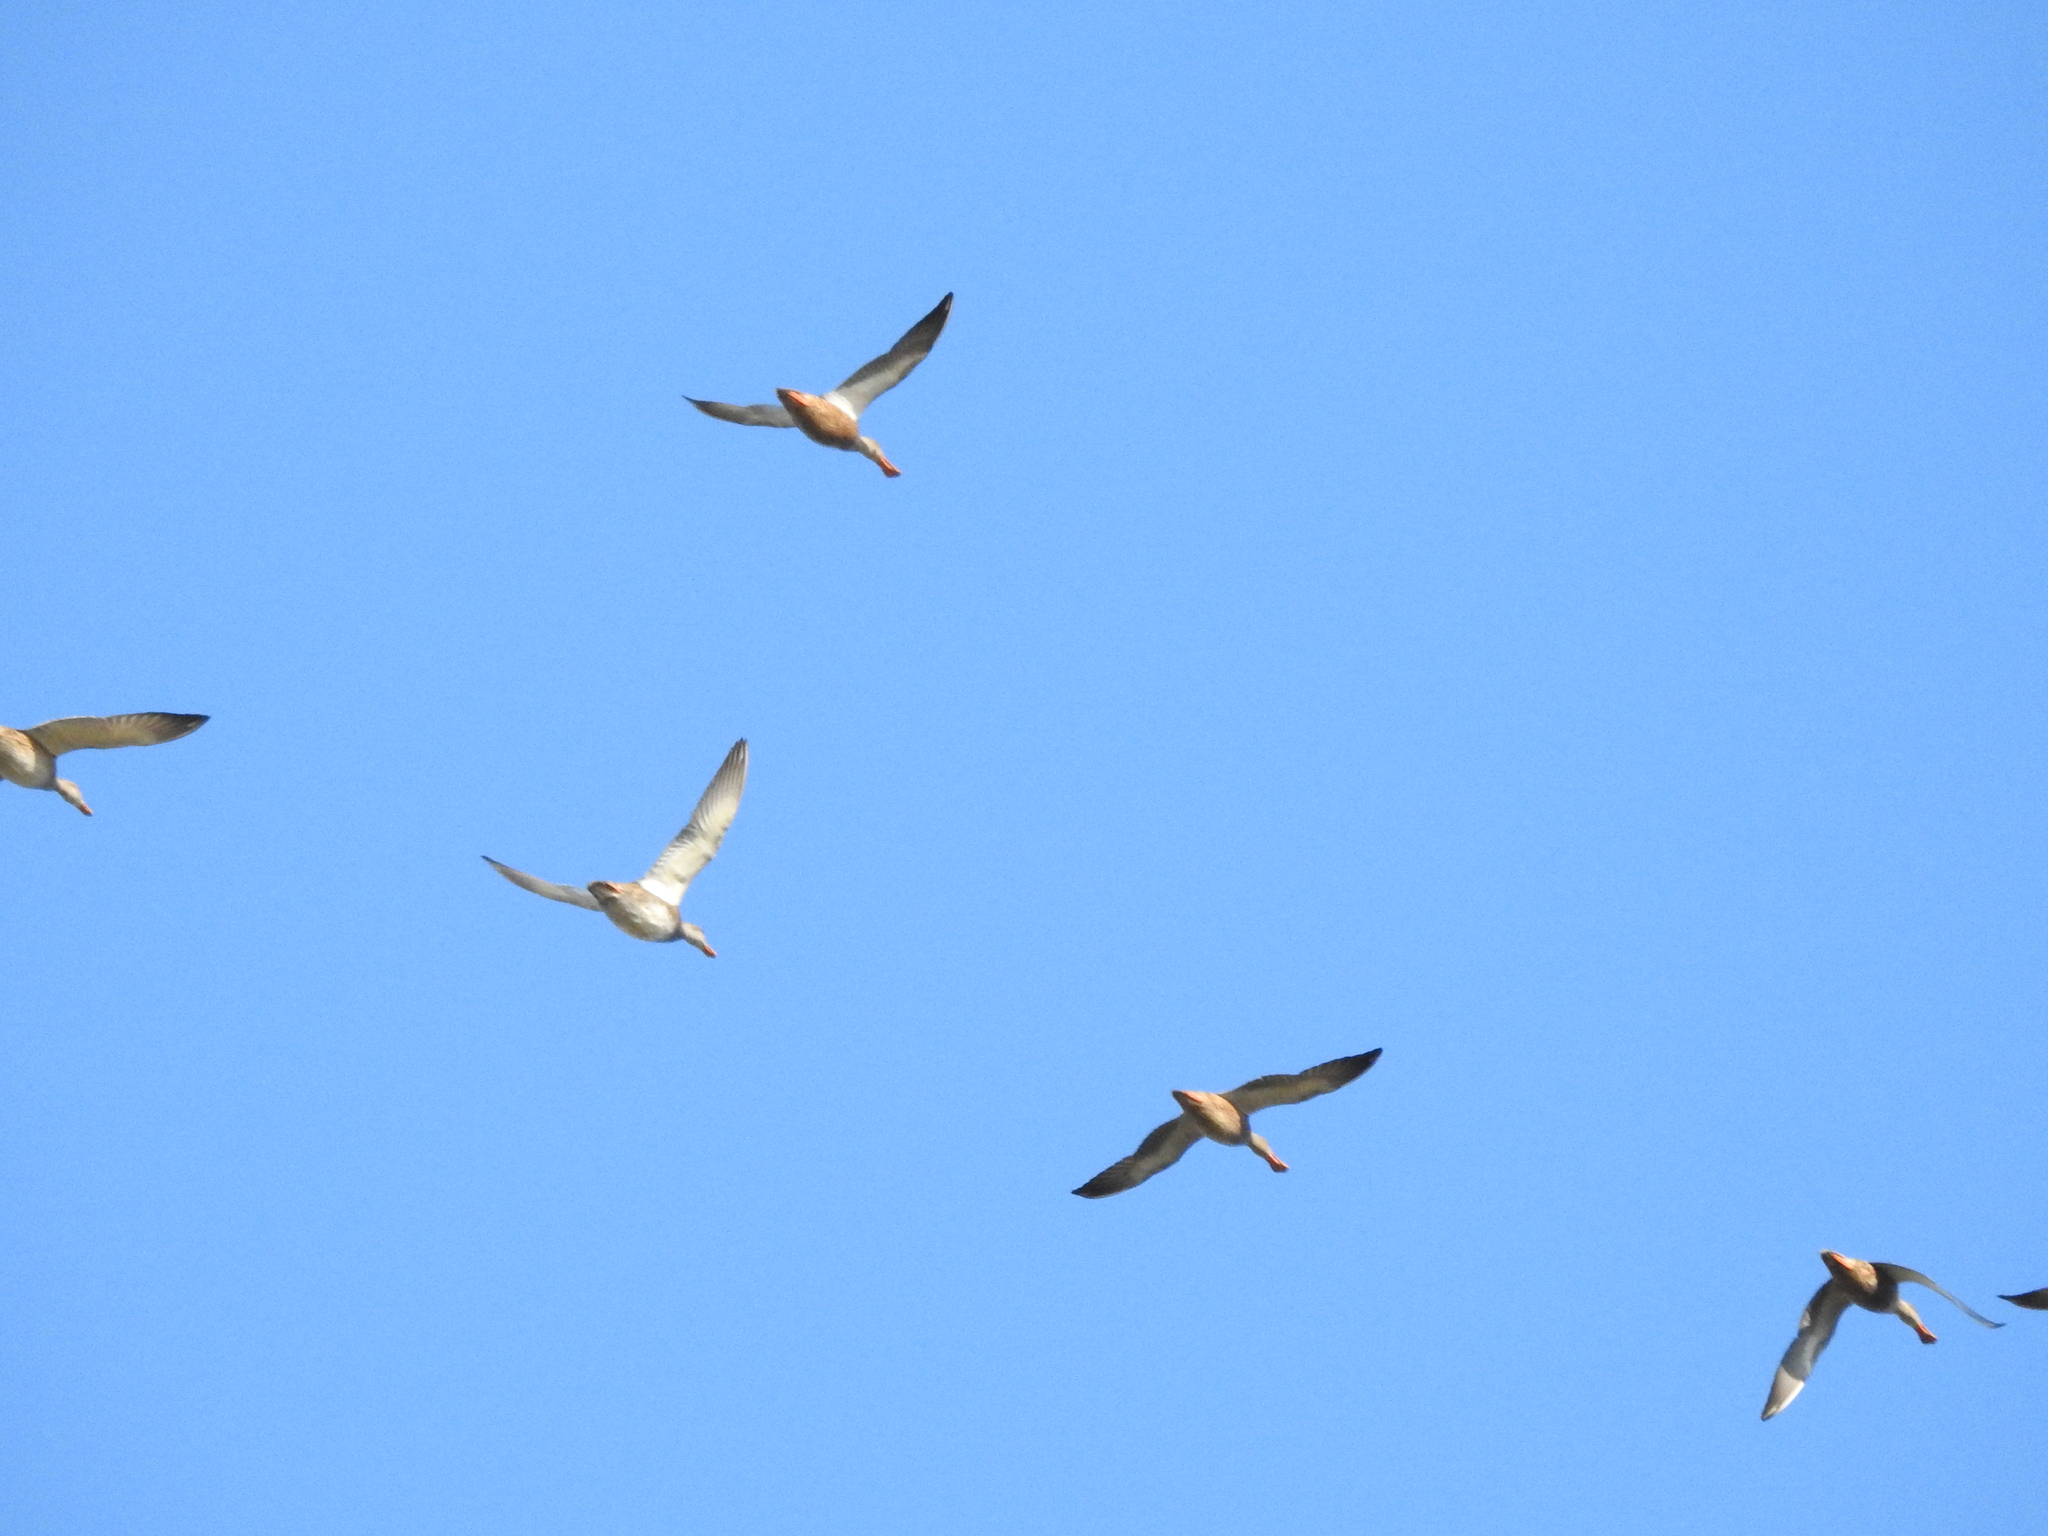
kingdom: Animalia
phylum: Chordata
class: Aves
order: Anseriformes
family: Anatidae
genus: Spatula
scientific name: Spatula clypeata
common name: Northern shoveler
